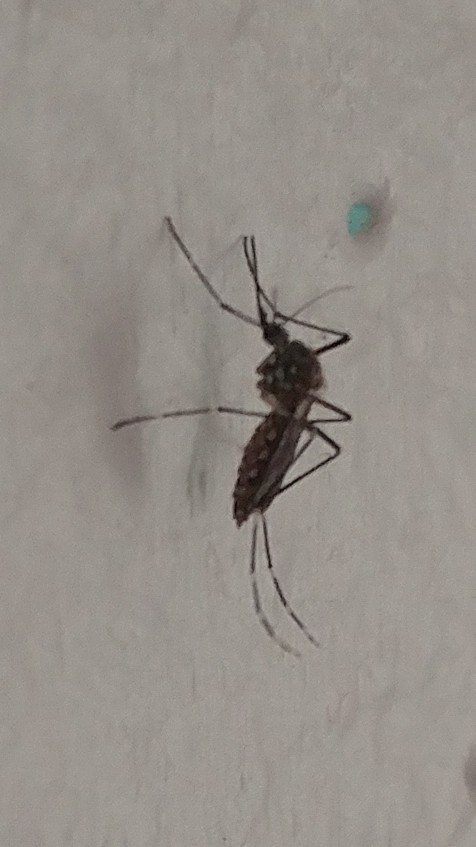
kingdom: Animalia
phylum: Arthropoda
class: Insecta
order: Diptera
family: Culicidae
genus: Aedes
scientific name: Aedes aegypti
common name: Yellow fever mosquito
